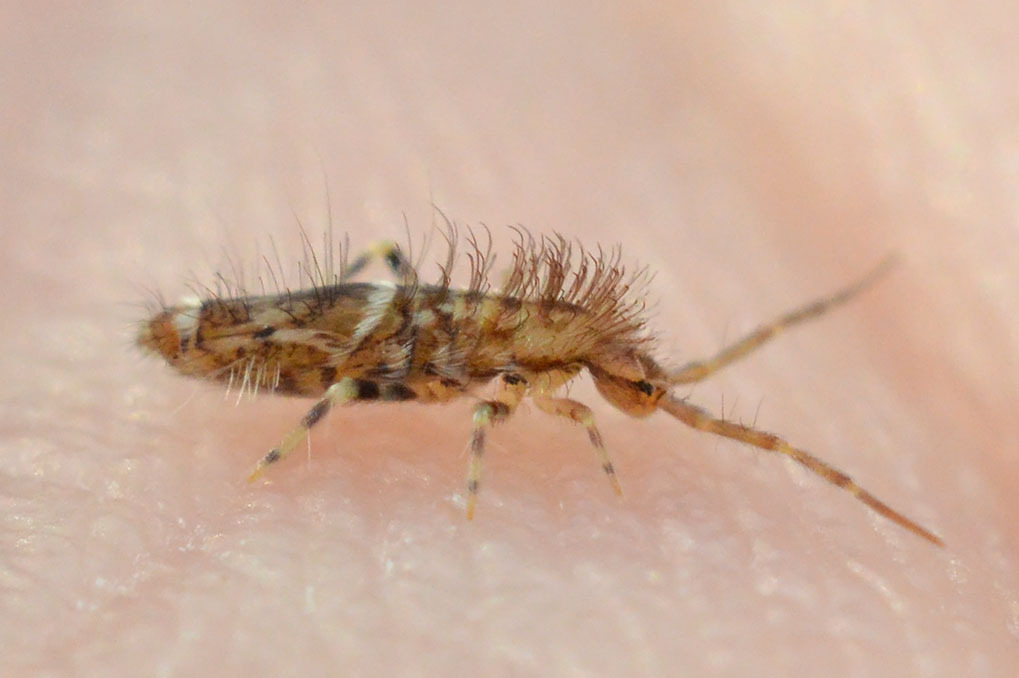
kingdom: Animalia
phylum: Arthropoda
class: Collembola
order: Entomobryomorpha
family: Entomobryidae
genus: Entomobrya
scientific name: Entomobrya dorsalis
